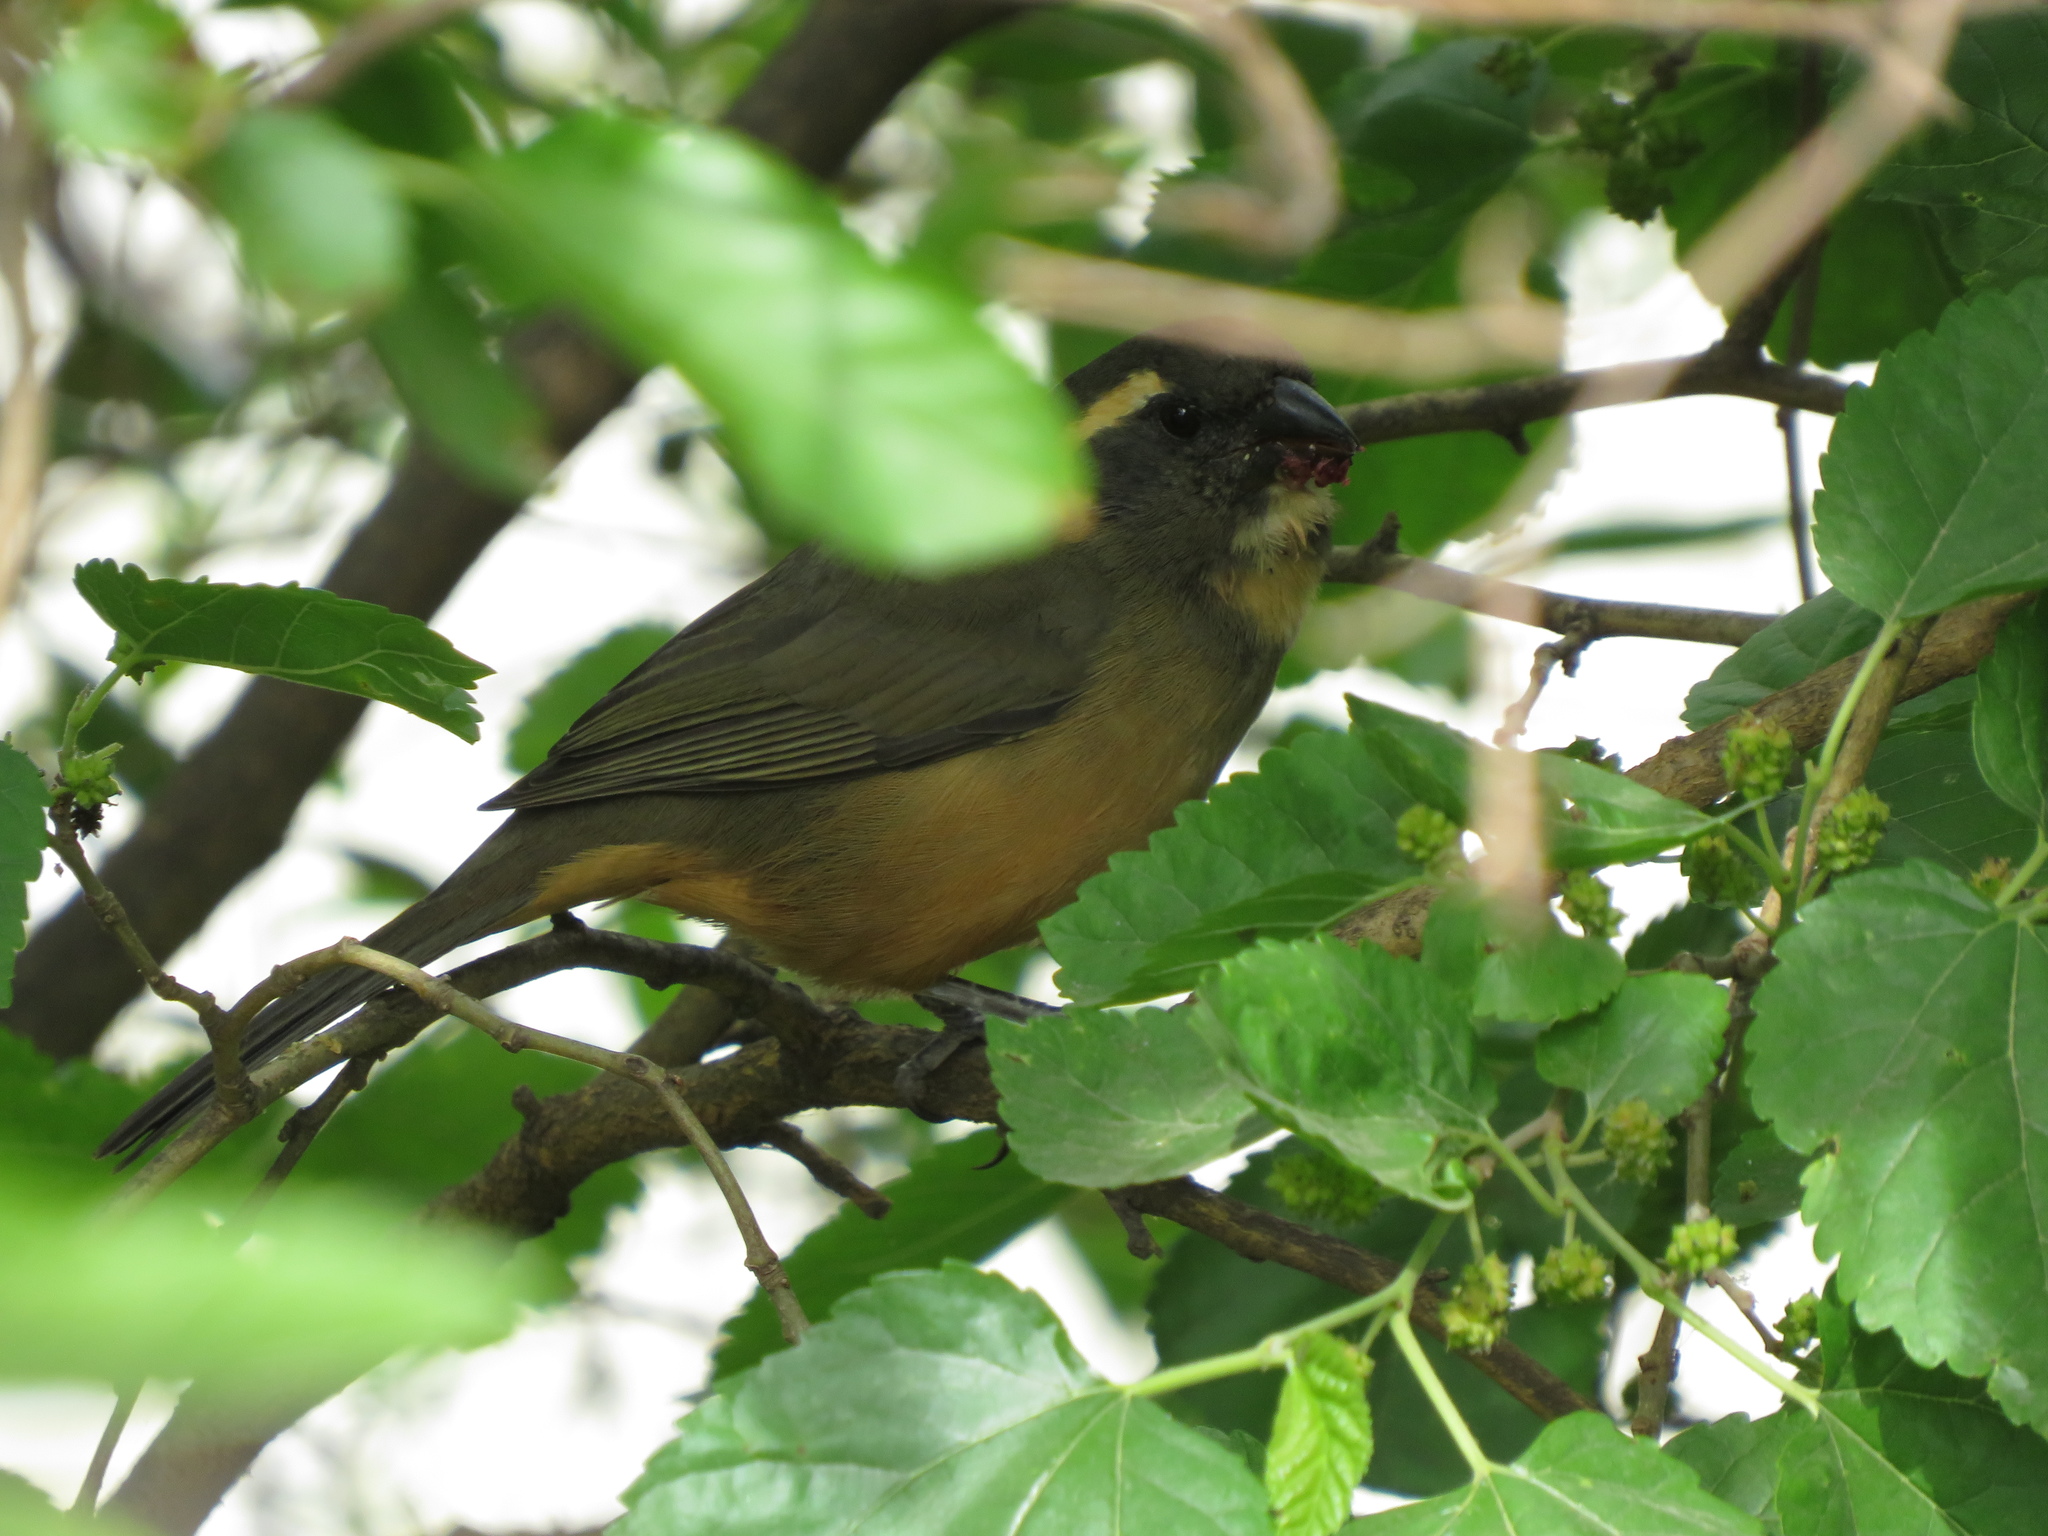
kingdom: Animalia
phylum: Chordata
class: Aves
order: Passeriformes
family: Thraupidae
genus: Saltator
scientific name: Saltator aurantiirostris
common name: Golden-billed saltator
